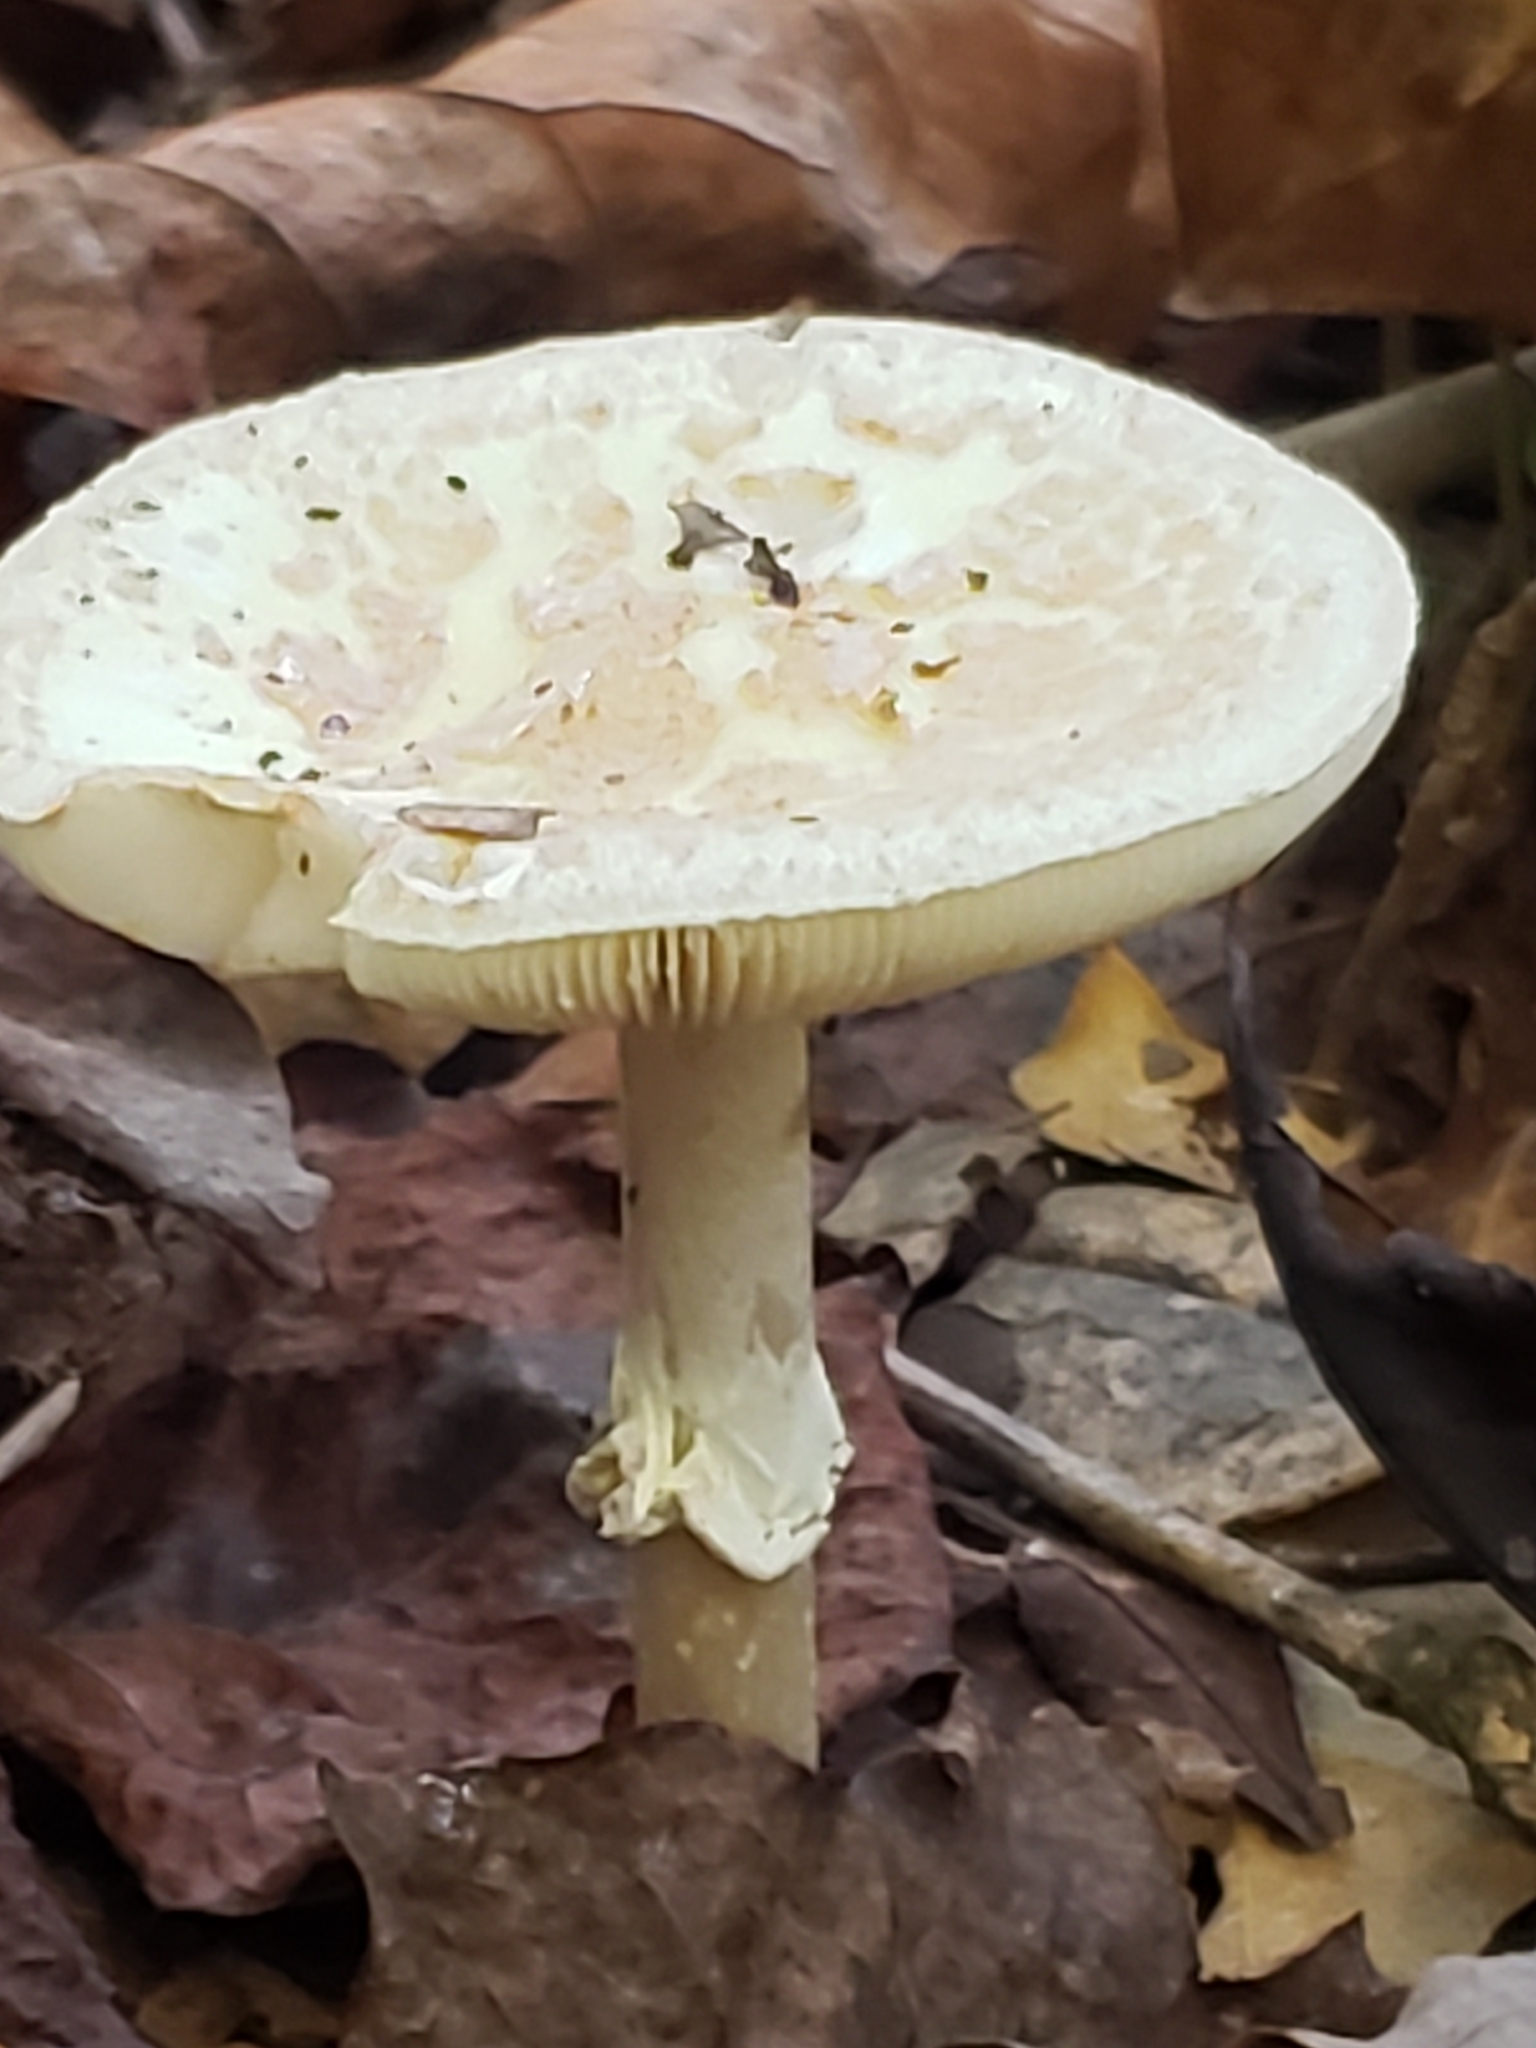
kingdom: Fungi
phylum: Basidiomycota
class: Agaricomycetes
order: Agaricales
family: Amanitaceae
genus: Amanita
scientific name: Amanita citrina
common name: False death-cap
